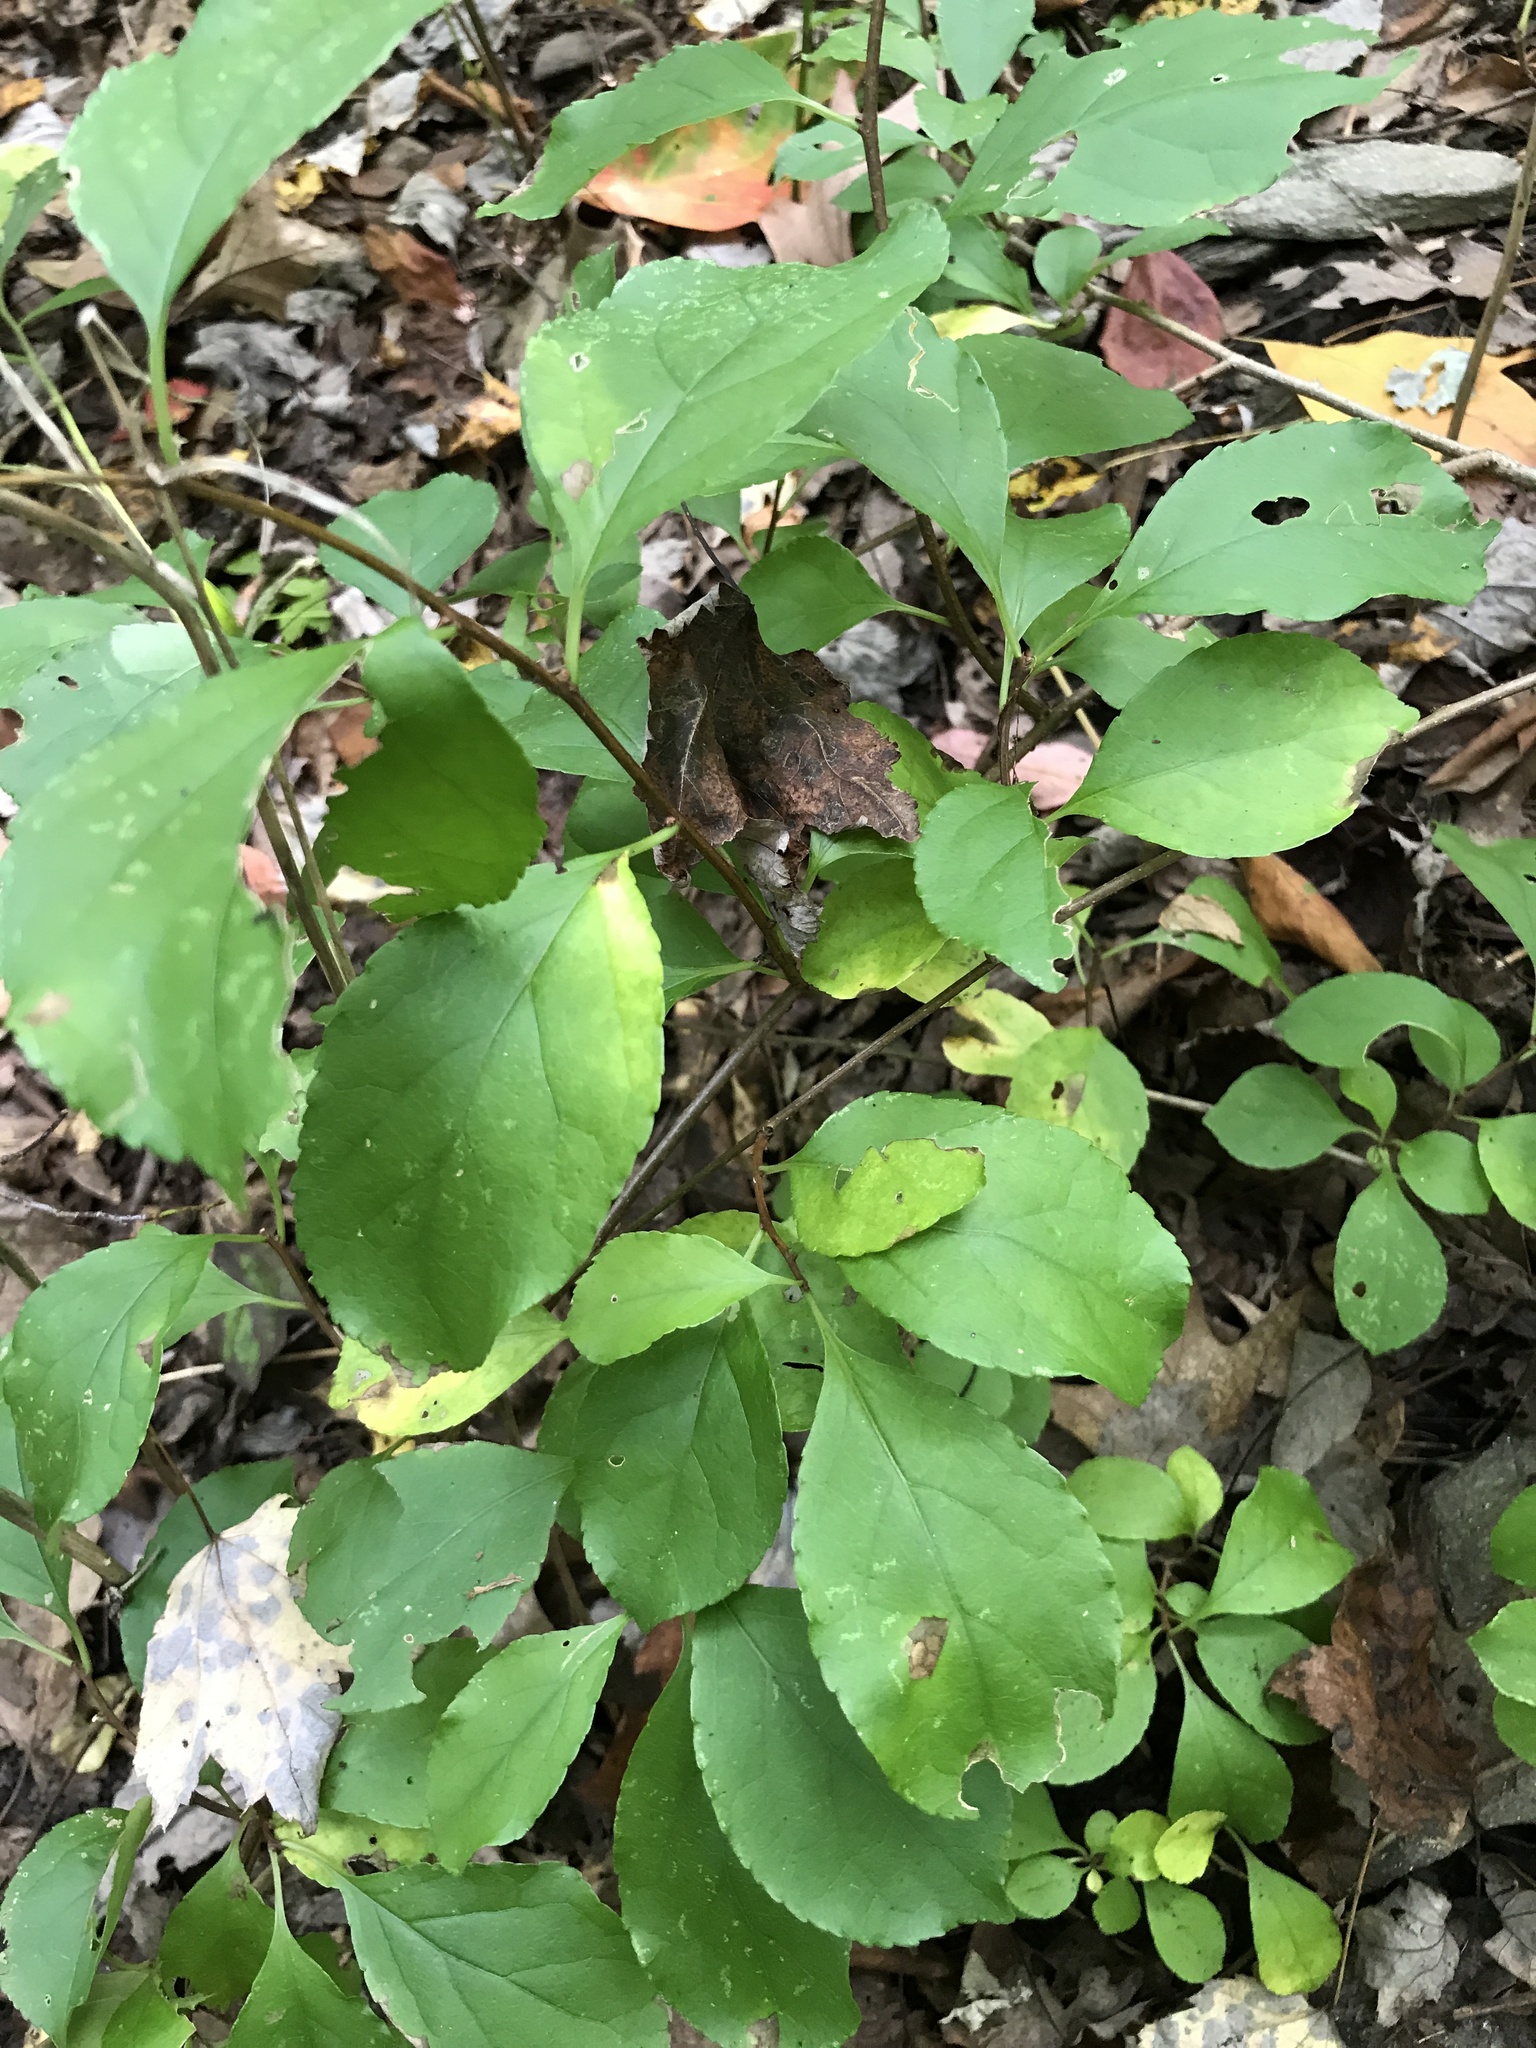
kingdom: Plantae
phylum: Tracheophyta
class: Magnoliopsida
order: Celastrales
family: Celastraceae
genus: Celastrus
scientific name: Celastrus orbiculatus
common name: Oriental bittersweet
